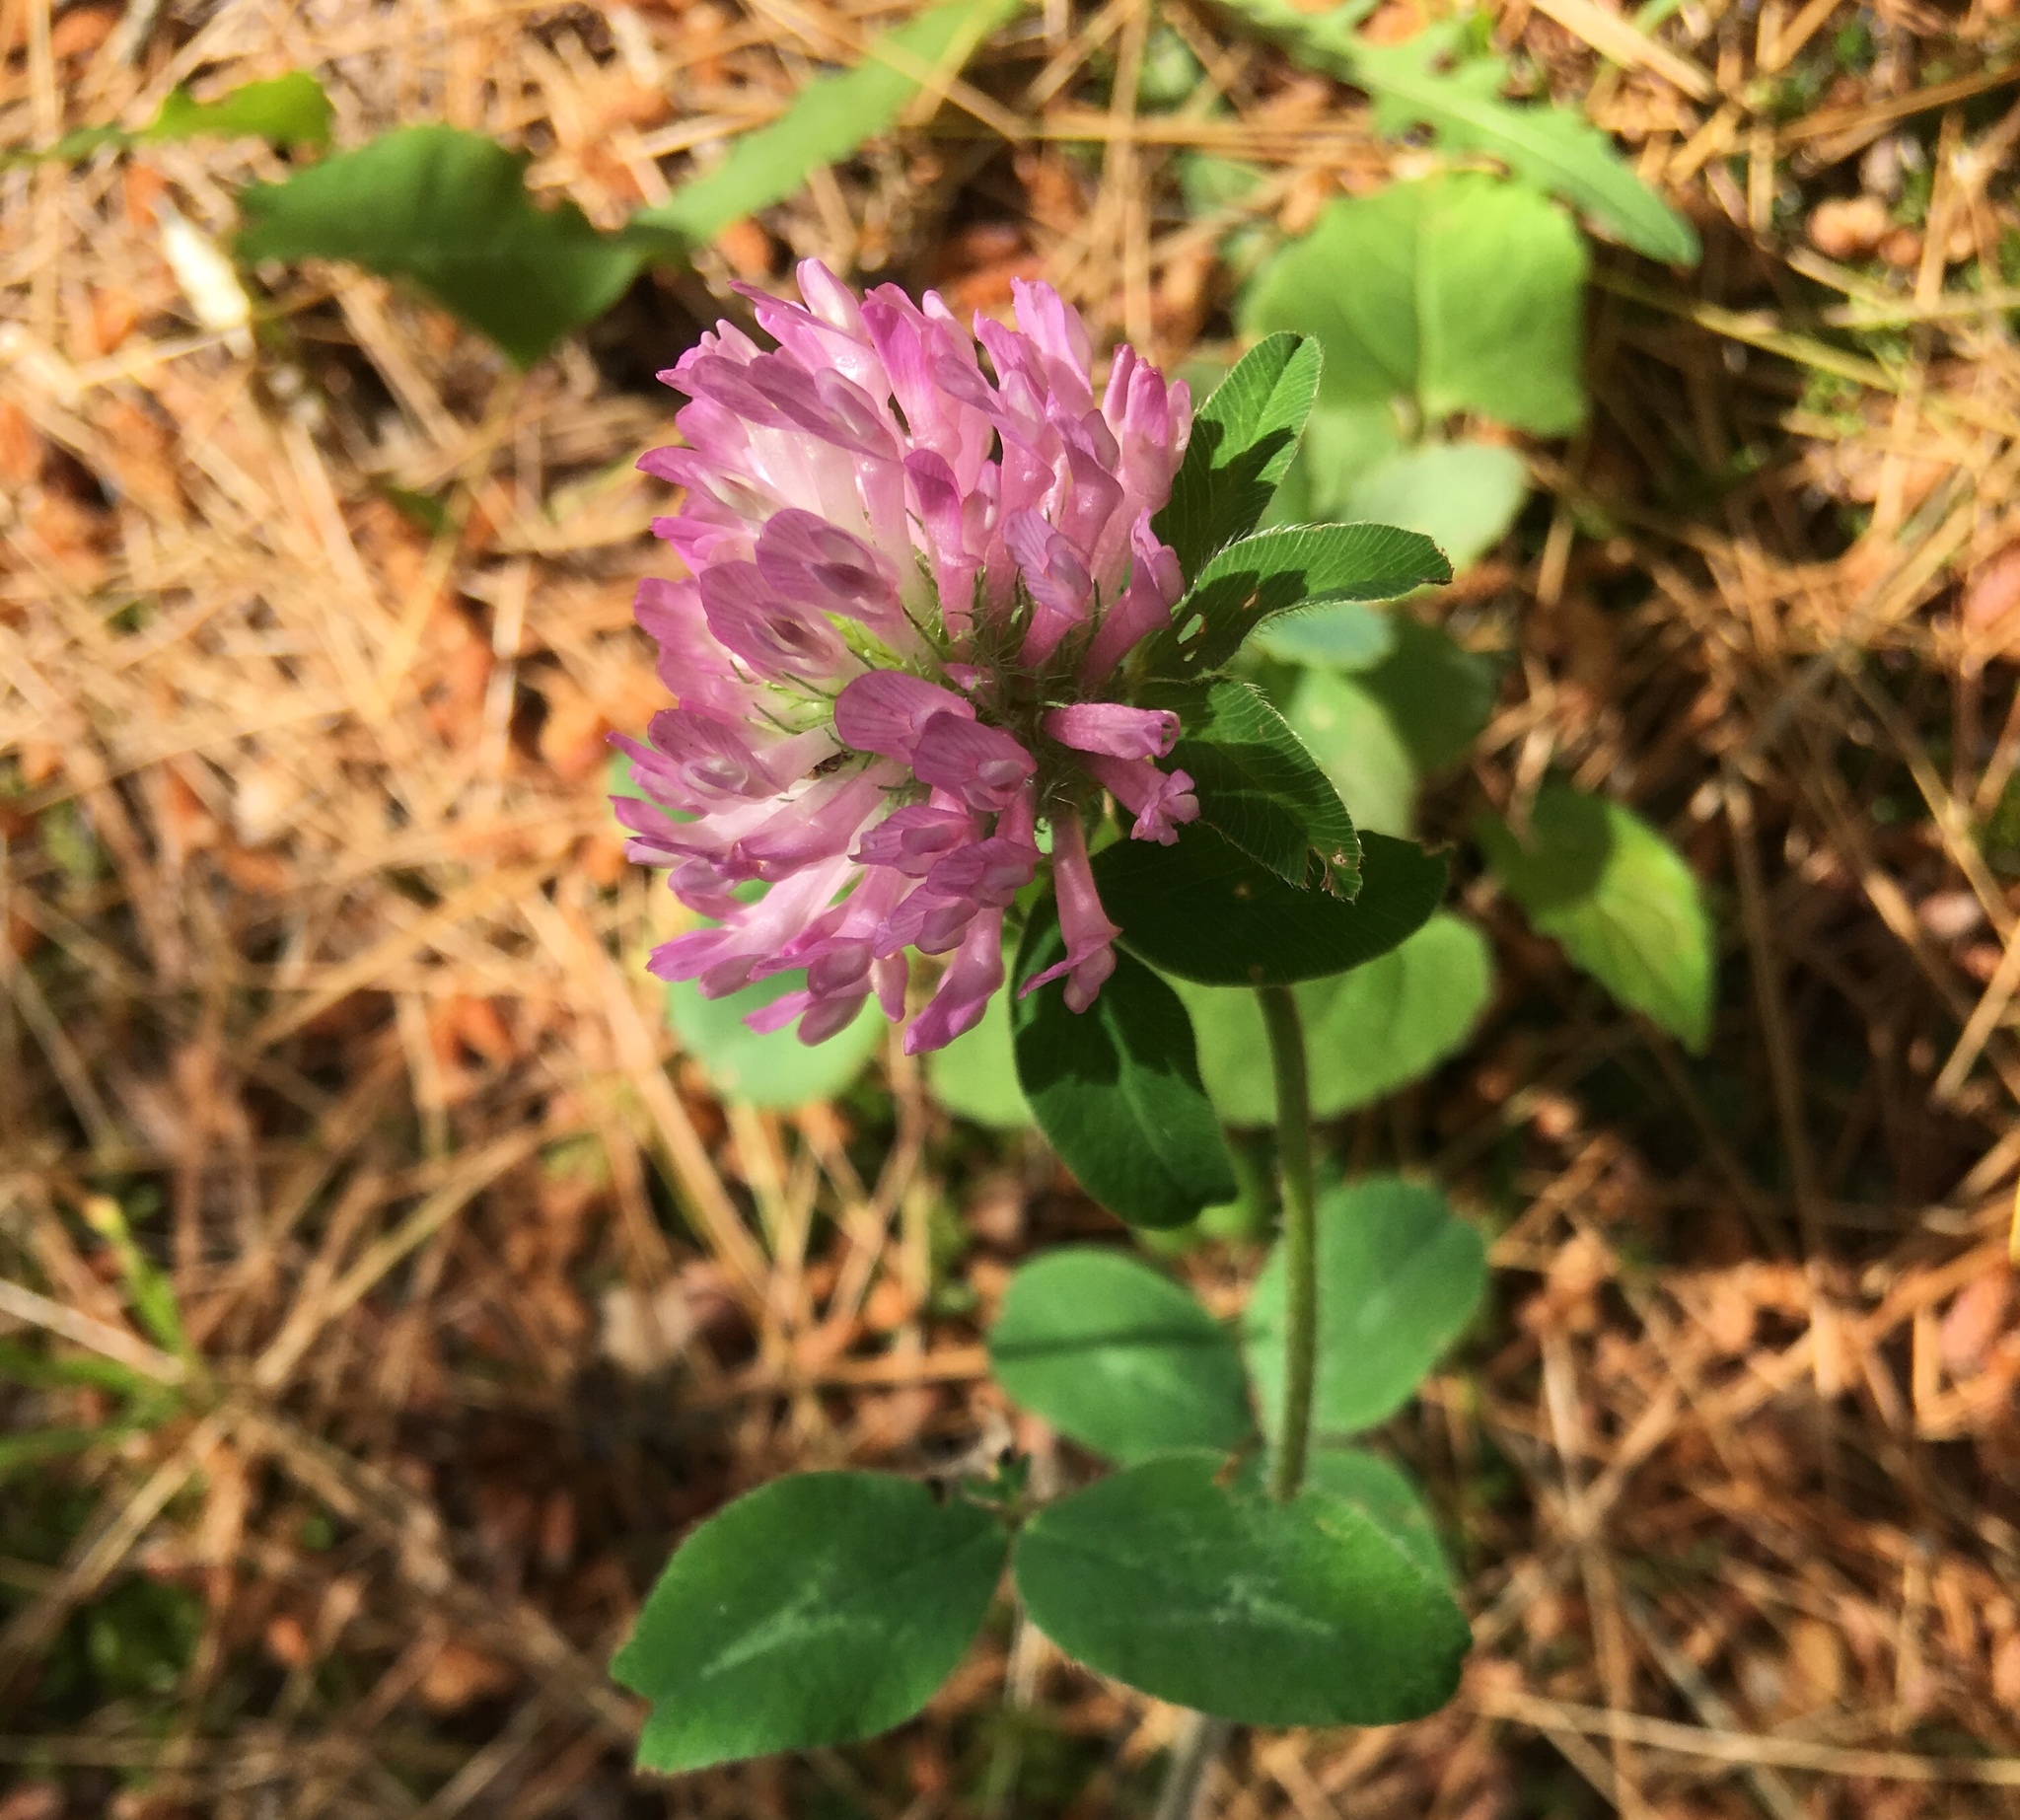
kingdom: Plantae
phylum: Tracheophyta
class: Magnoliopsida
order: Fabales
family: Fabaceae
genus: Trifolium
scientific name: Trifolium pratense
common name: Red clover
